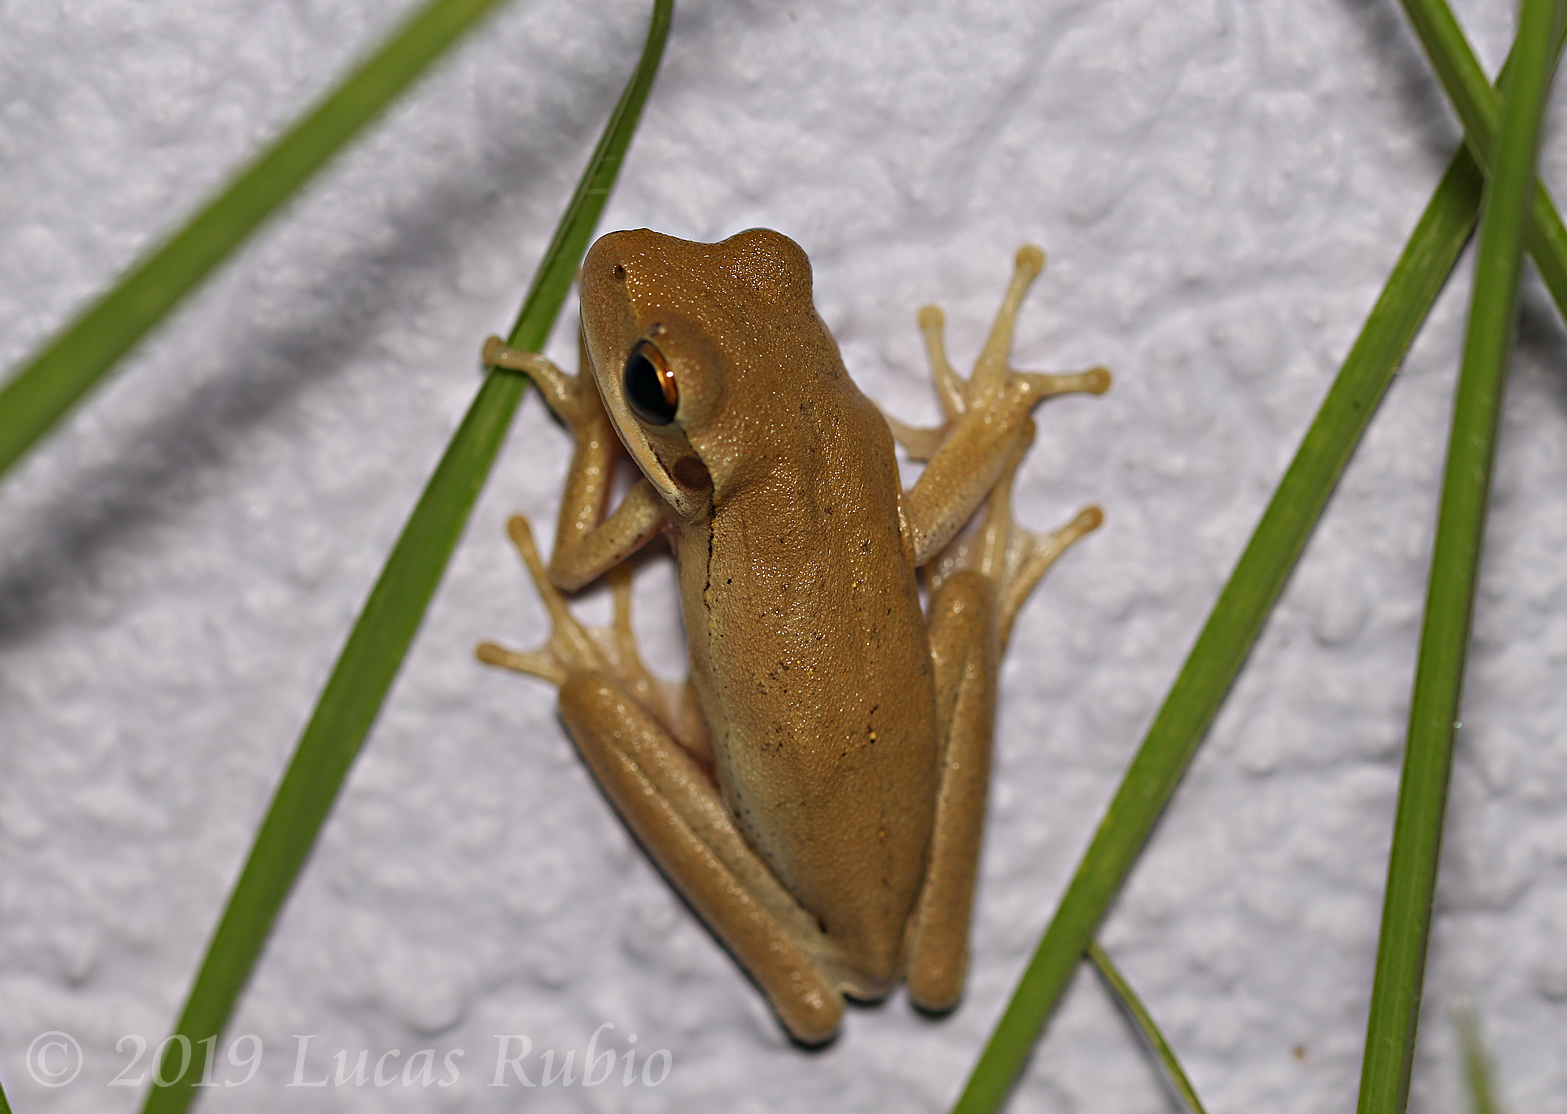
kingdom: Animalia
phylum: Chordata
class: Amphibia
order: Anura
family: Hylidae
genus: Boana
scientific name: Boana pulchella
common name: Montevideo treefrog
